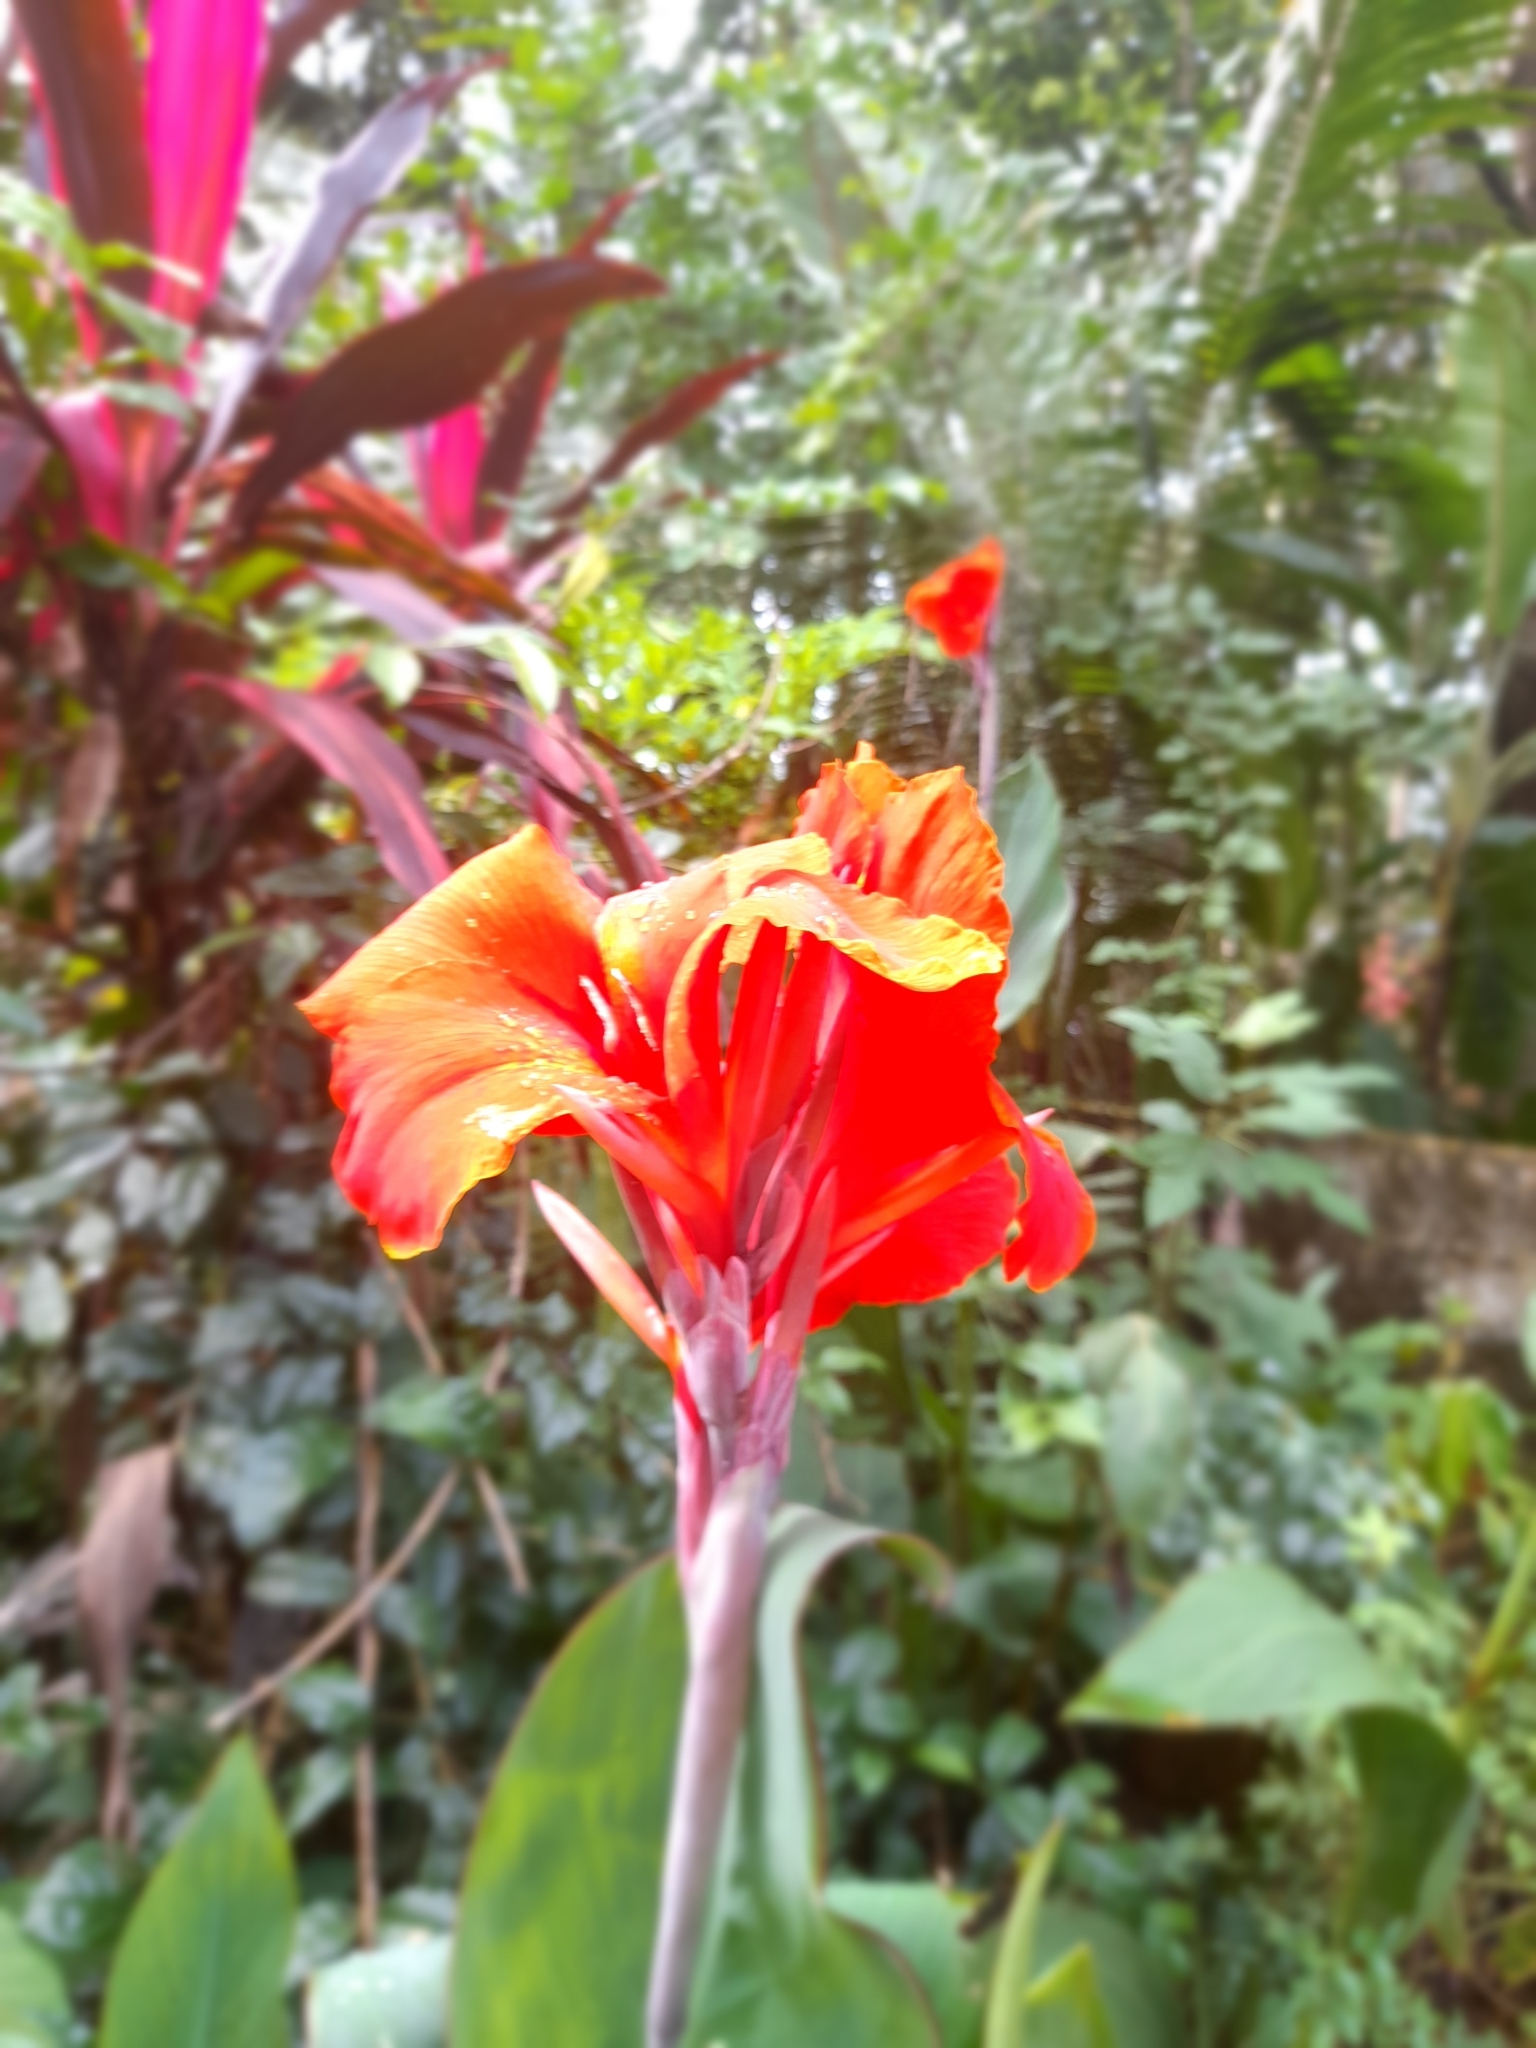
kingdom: Plantae
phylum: Tracheophyta
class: Liliopsida
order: Zingiberales
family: Cannaceae
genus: Canna
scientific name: Canna hybrida
